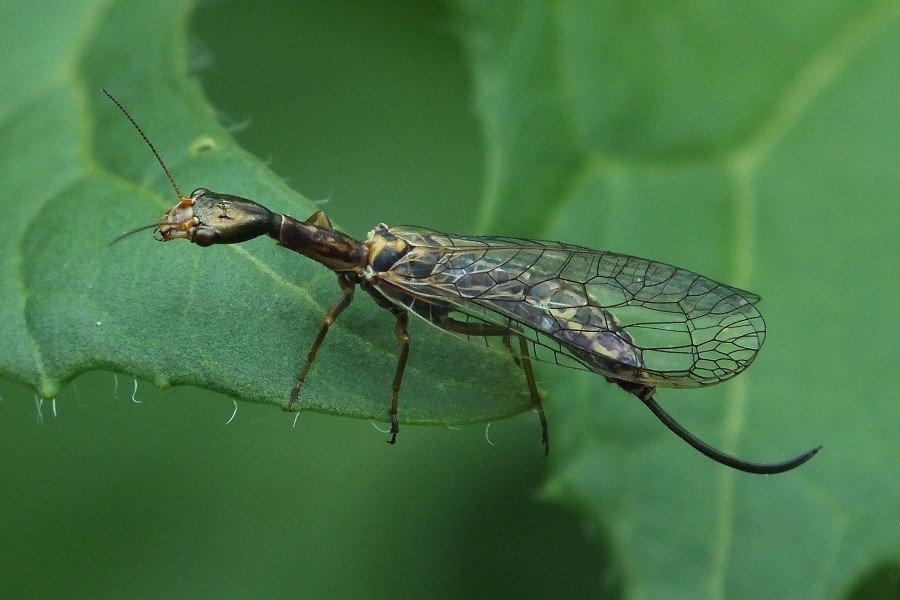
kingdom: Animalia
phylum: Arthropoda
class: Insecta
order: Raphidioptera
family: Raphidiidae
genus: Xanthostigma
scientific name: Xanthostigma xanthostigma
